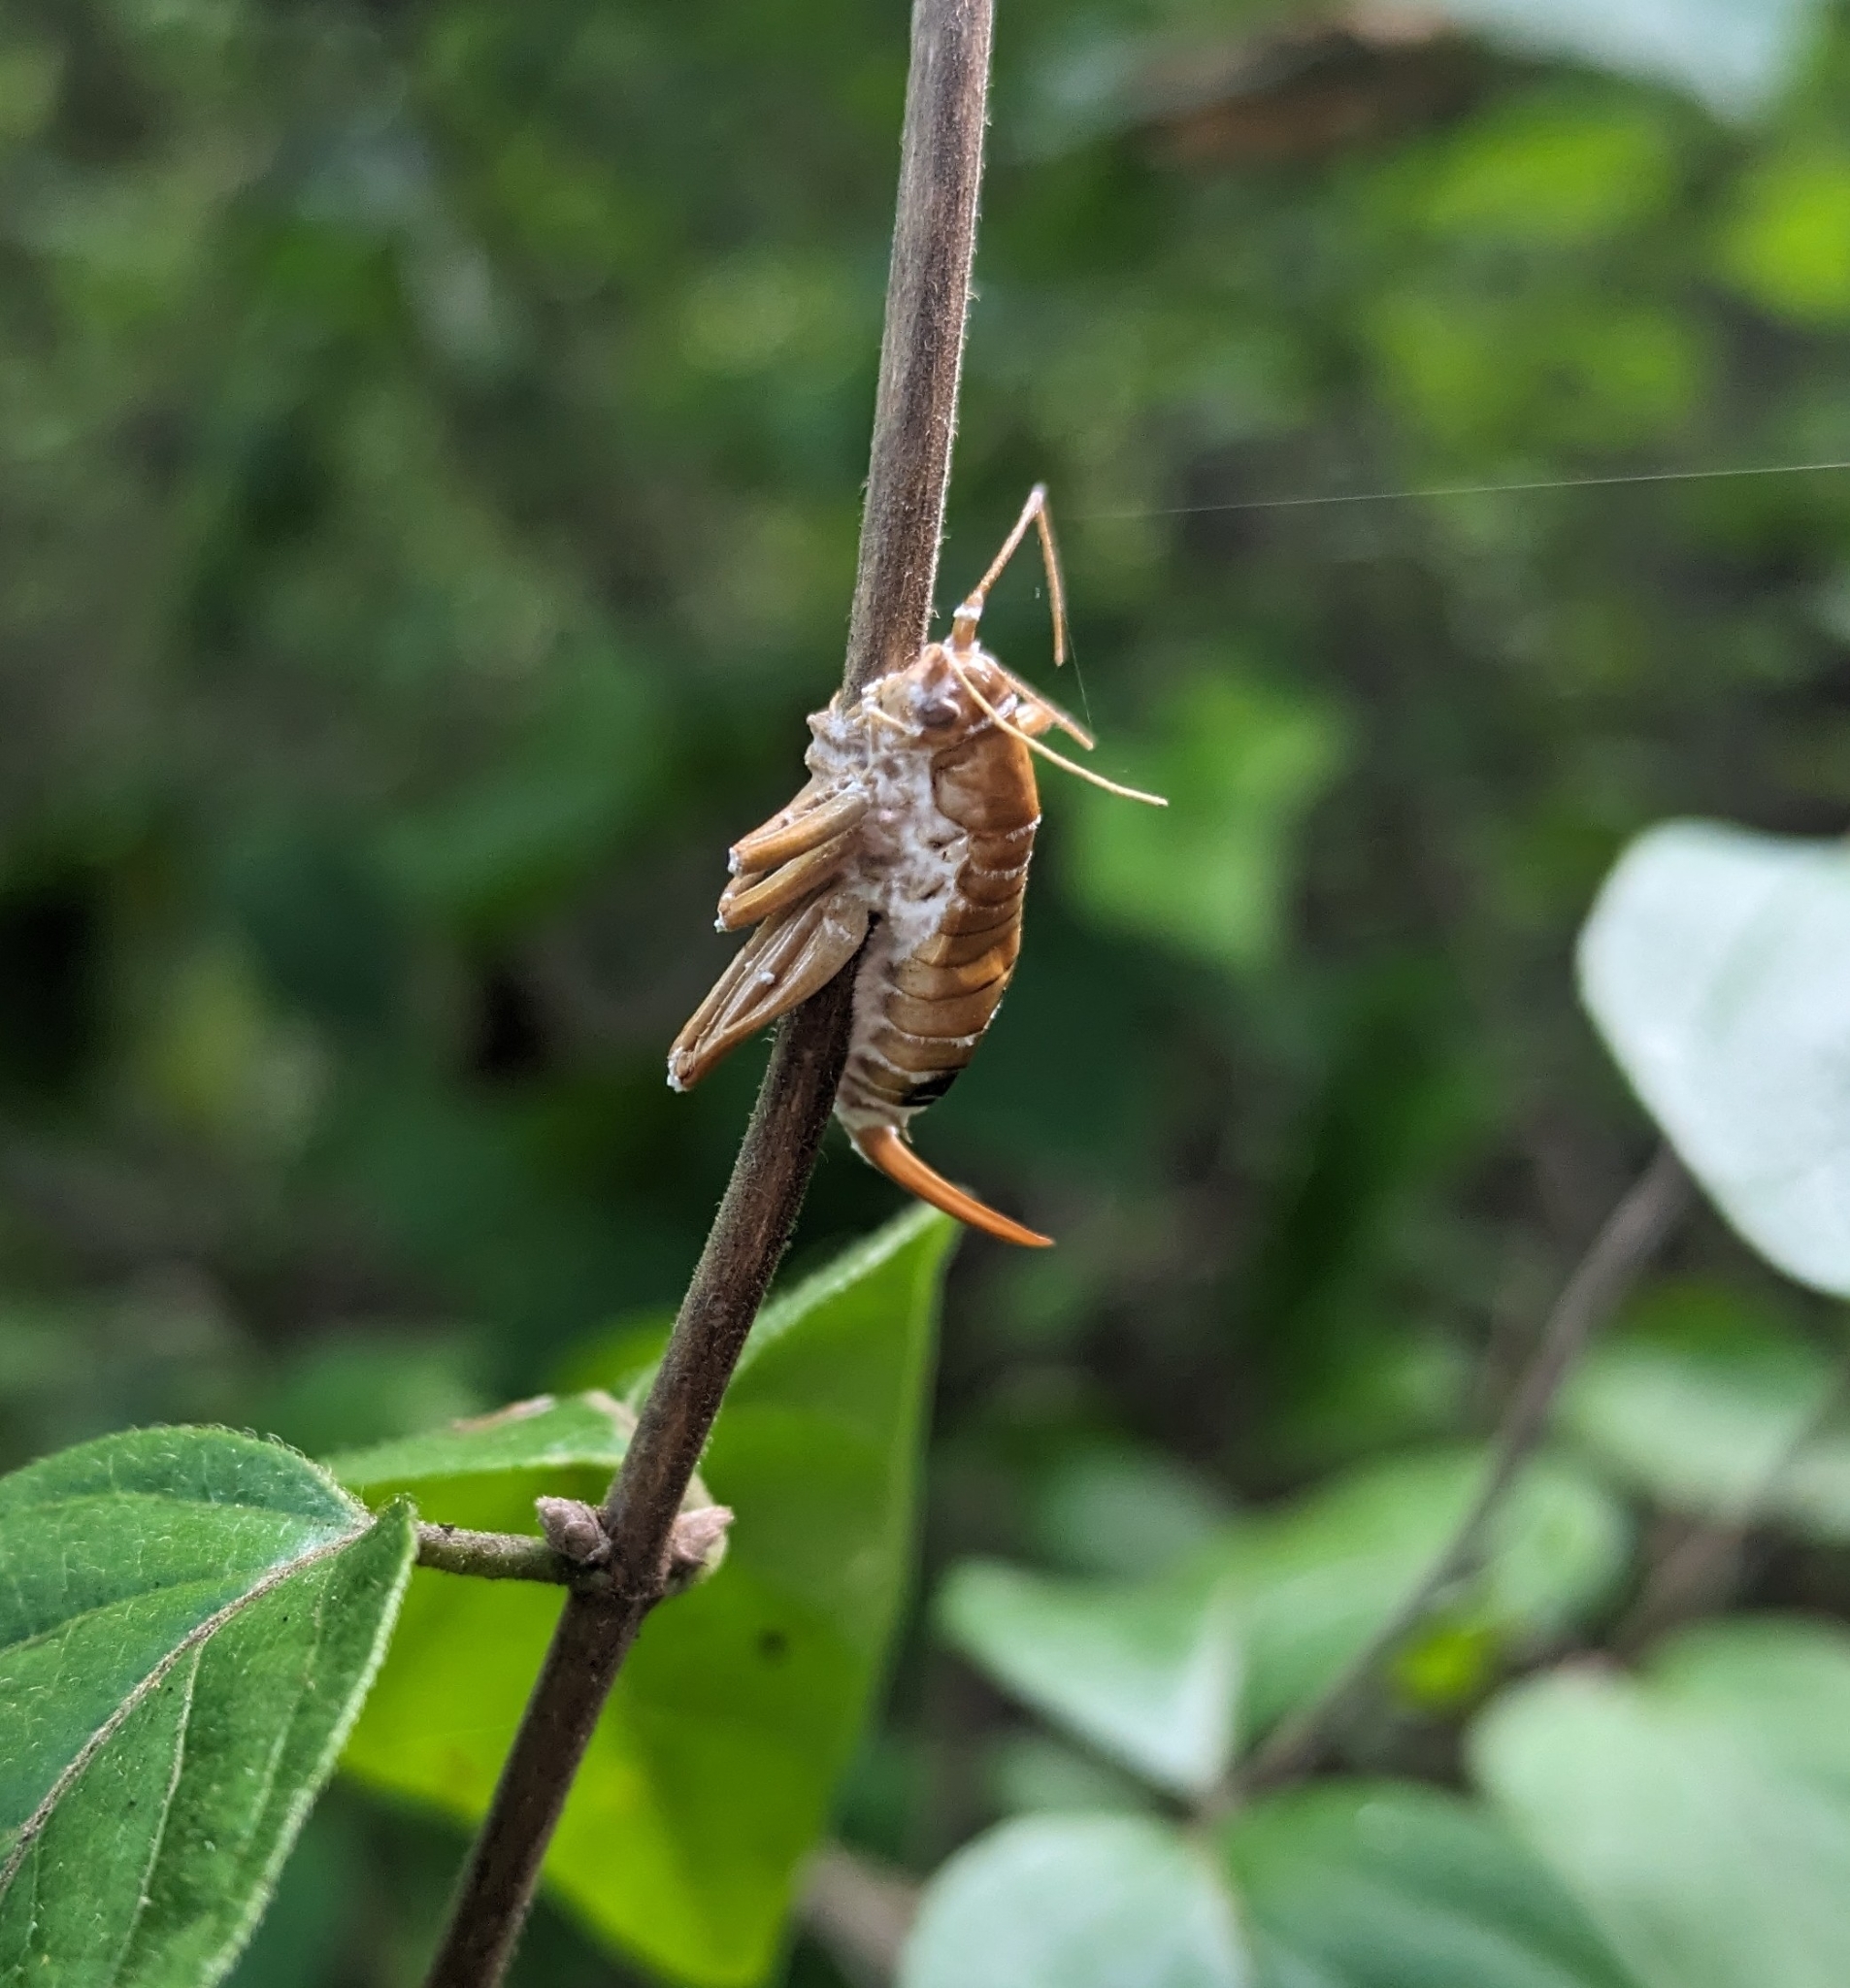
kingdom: Animalia
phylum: Arthropoda
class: Insecta
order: Orthoptera
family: Gryllacrididae
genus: Camptonotus
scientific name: Camptonotus carolinensis
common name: Carolina leaf-roller
